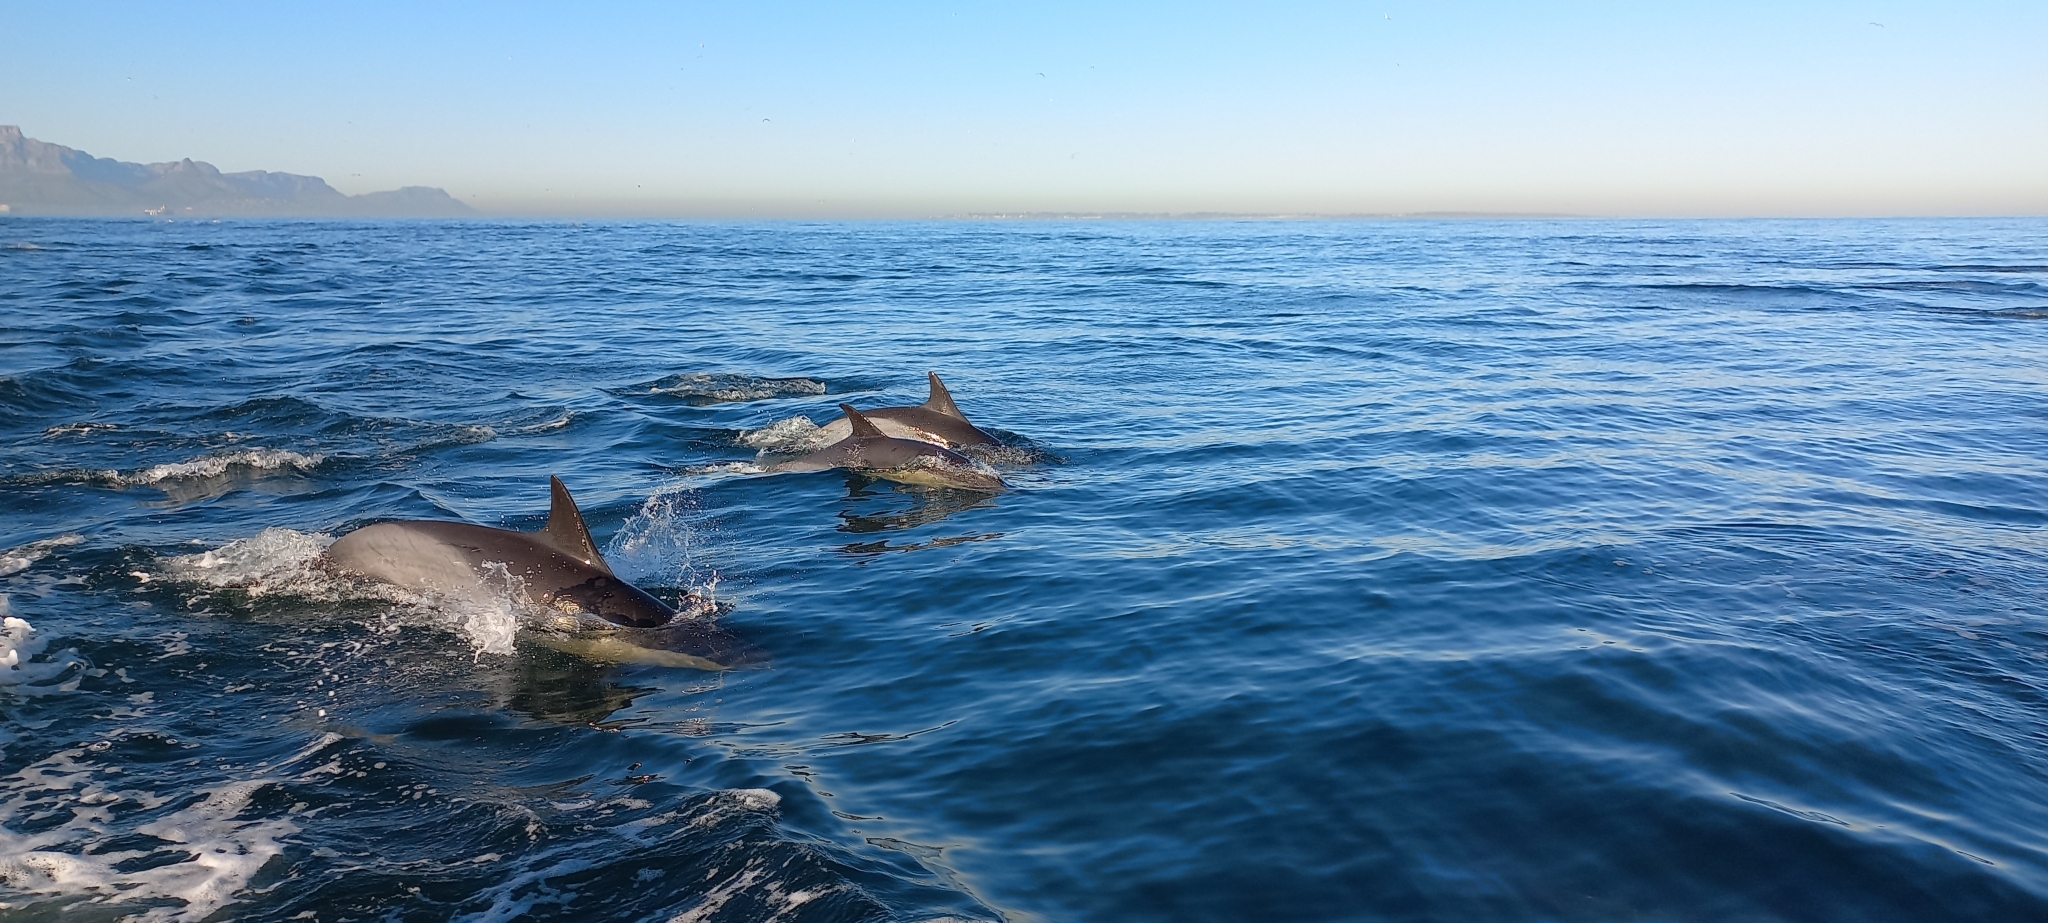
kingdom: Animalia
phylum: Chordata
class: Mammalia
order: Cetacea
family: Delphinidae
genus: Delphinus
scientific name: Delphinus delphis
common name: Common dolphin
